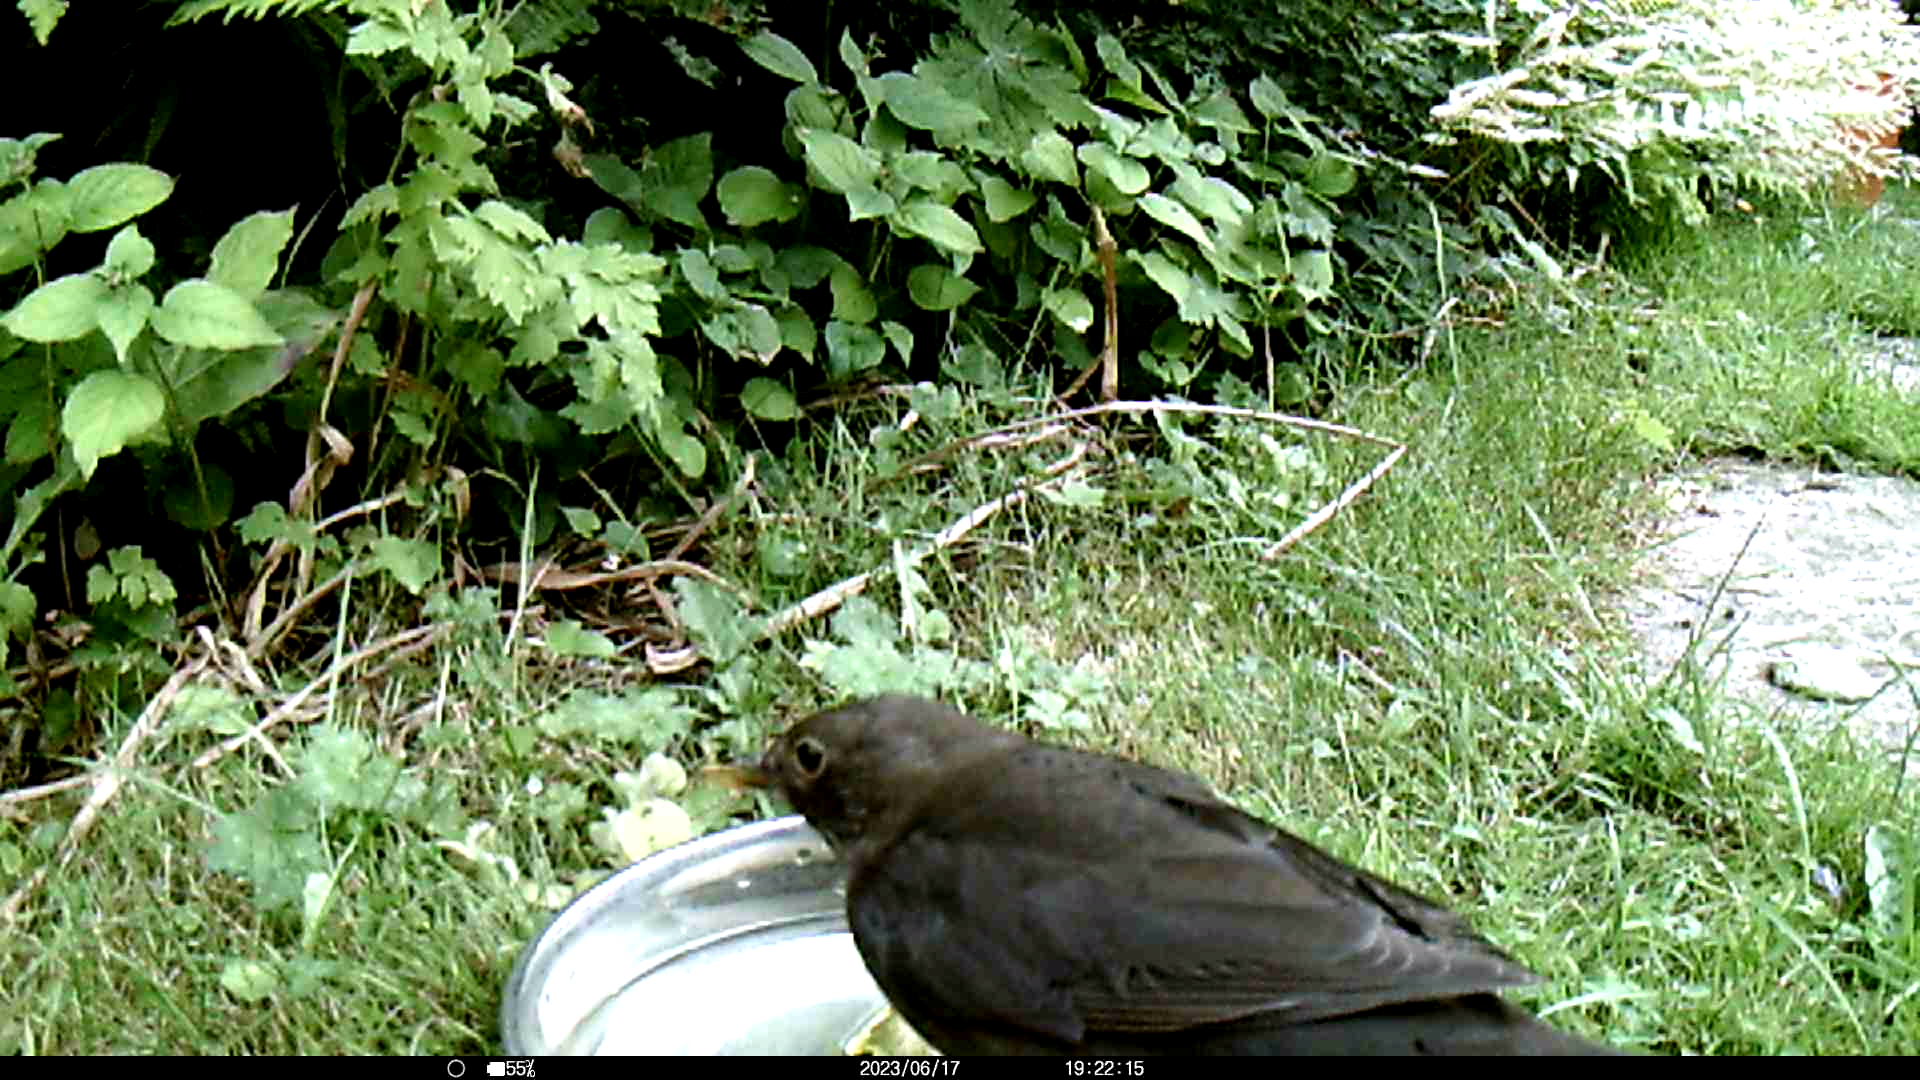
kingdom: Animalia
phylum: Chordata
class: Aves
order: Passeriformes
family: Turdidae
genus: Turdus
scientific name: Turdus merula
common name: Common blackbird
